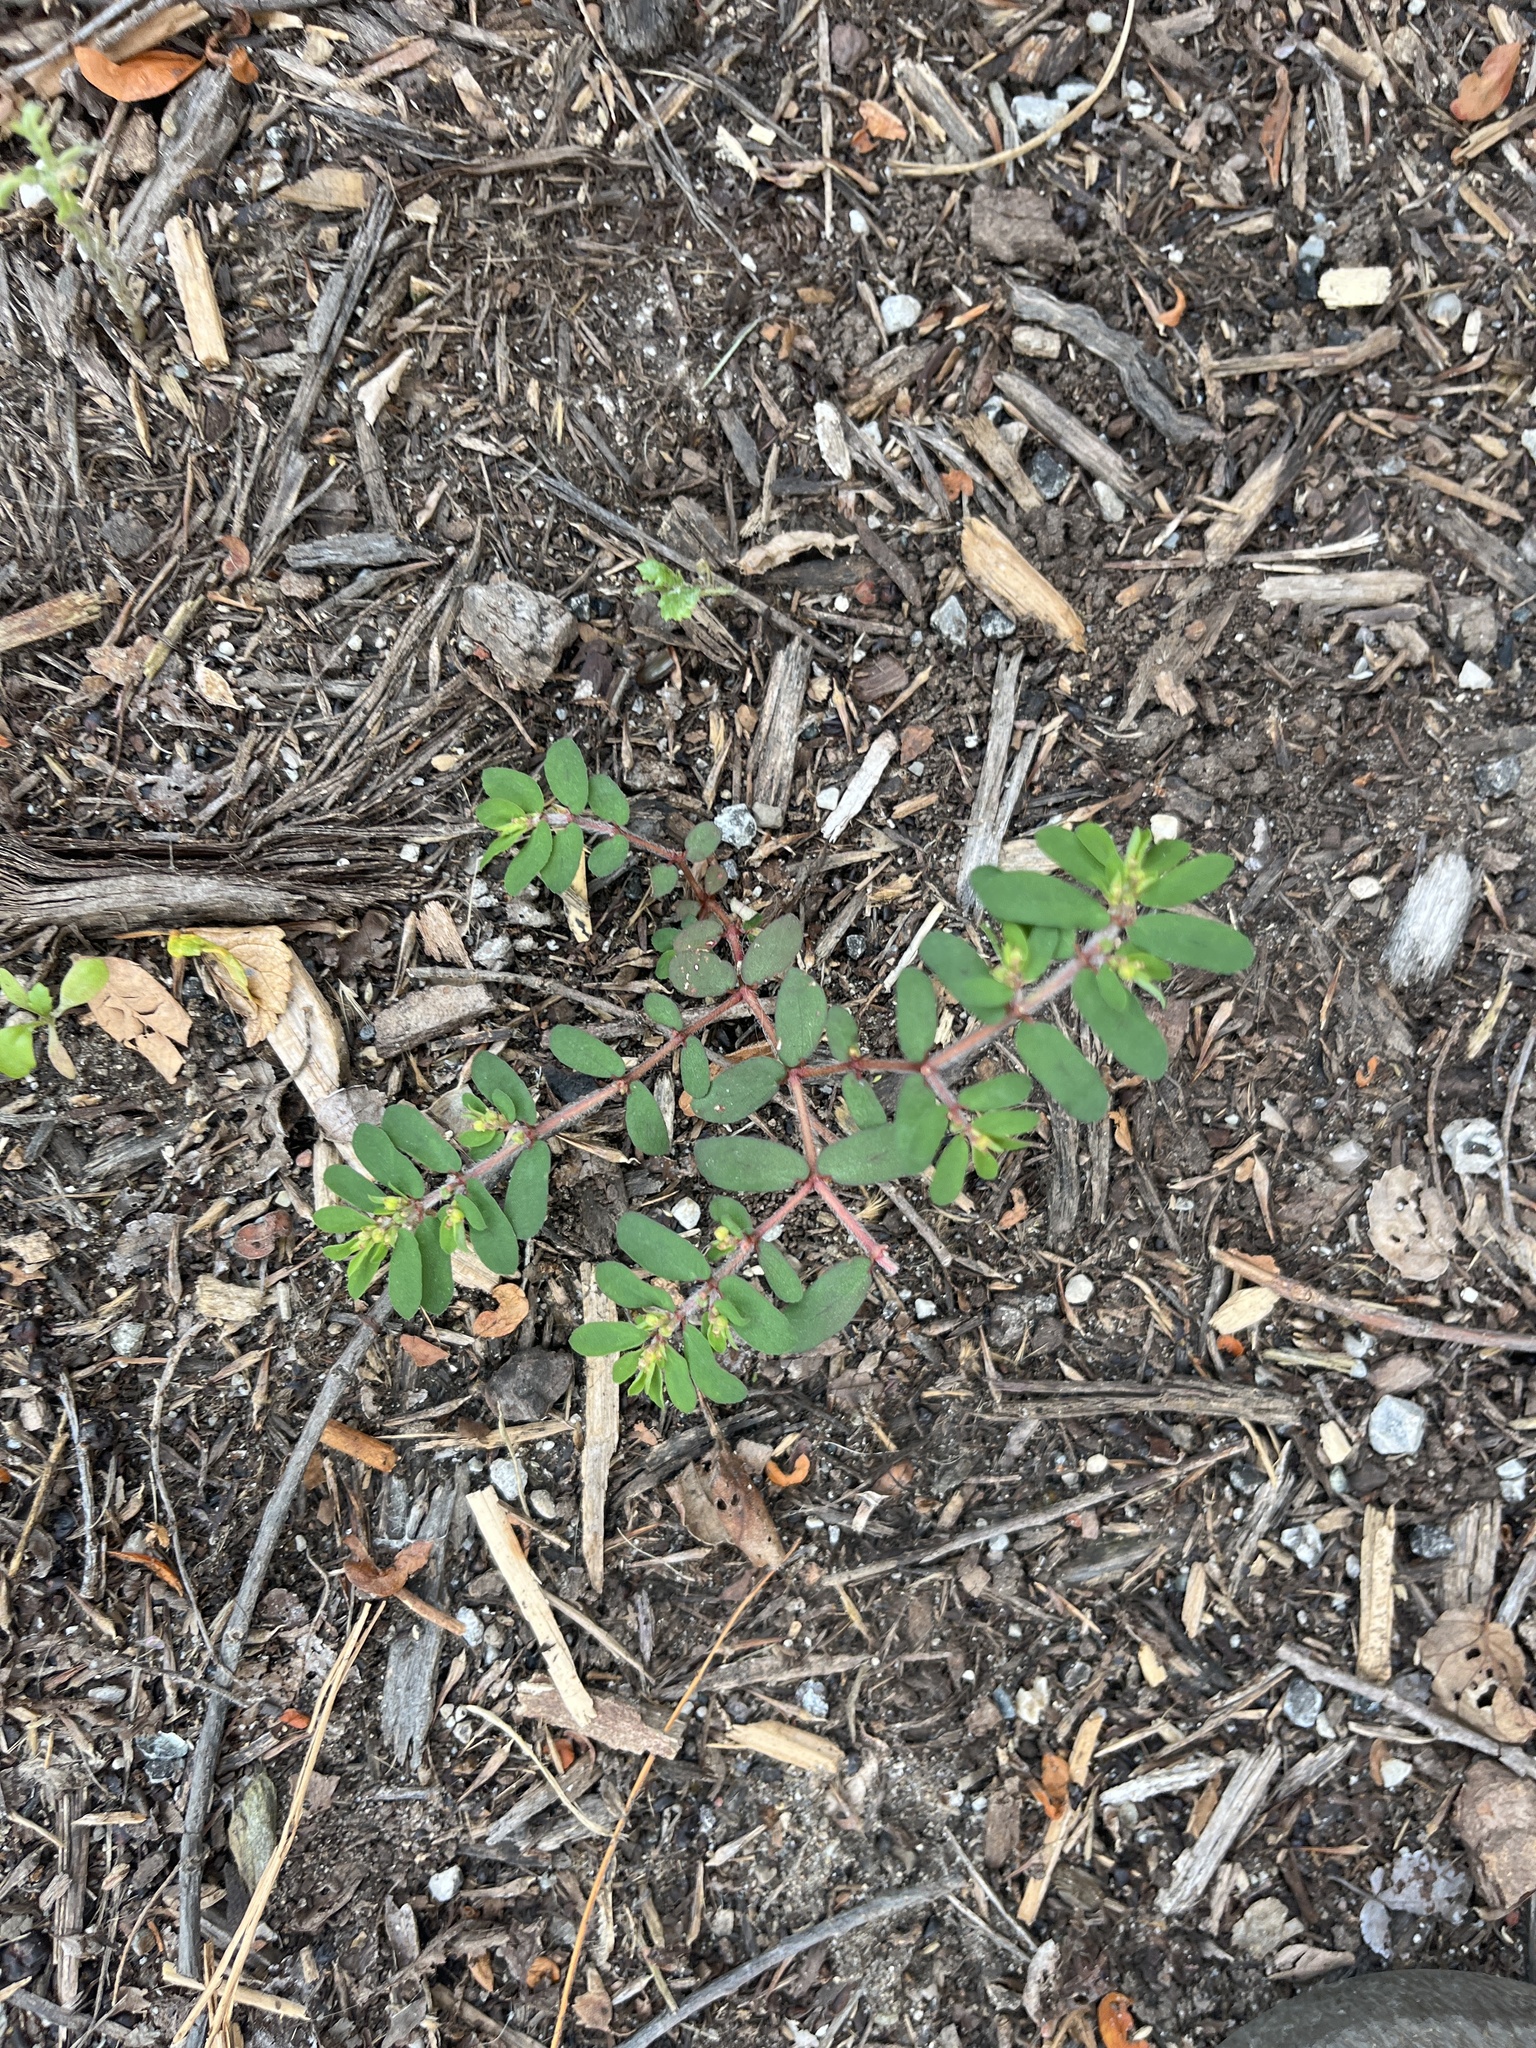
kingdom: Plantae
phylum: Tracheophyta
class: Magnoliopsida
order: Malpighiales
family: Euphorbiaceae
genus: Euphorbia
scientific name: Euphorbia maculata
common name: Spotted spurge
